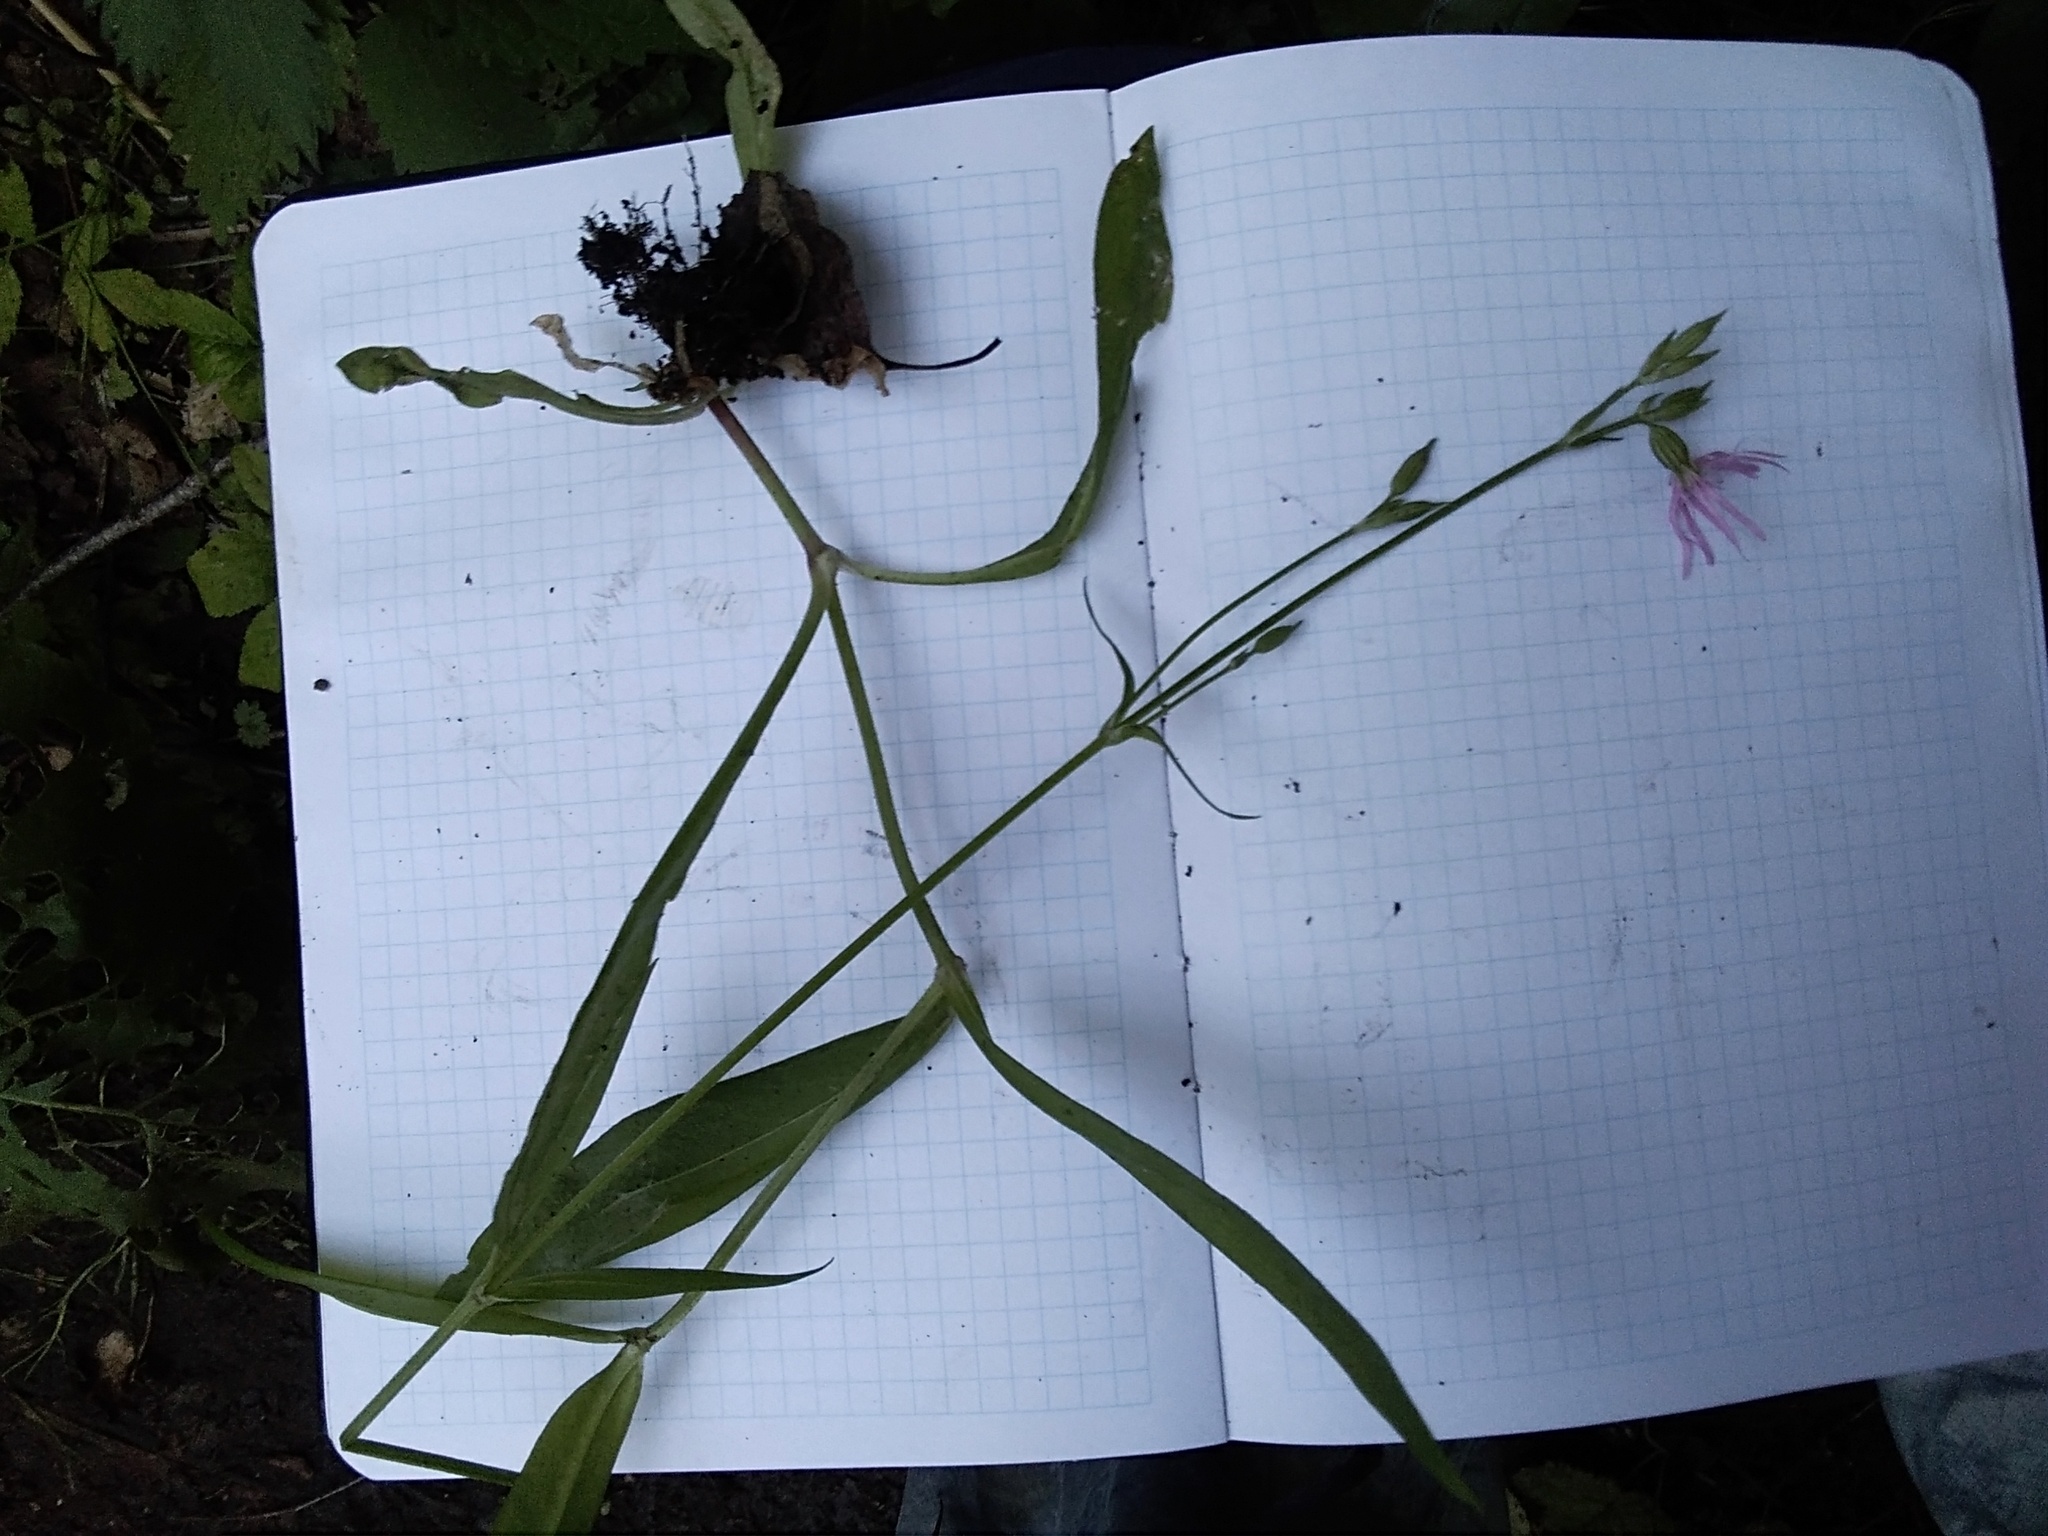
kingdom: Plantae
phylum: Tracheophyta
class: Magnoliopsida
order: Caryophyllales
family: Caryophyllaceae
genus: Silene
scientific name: Silene flos-cuculi
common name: Ragged-robin
